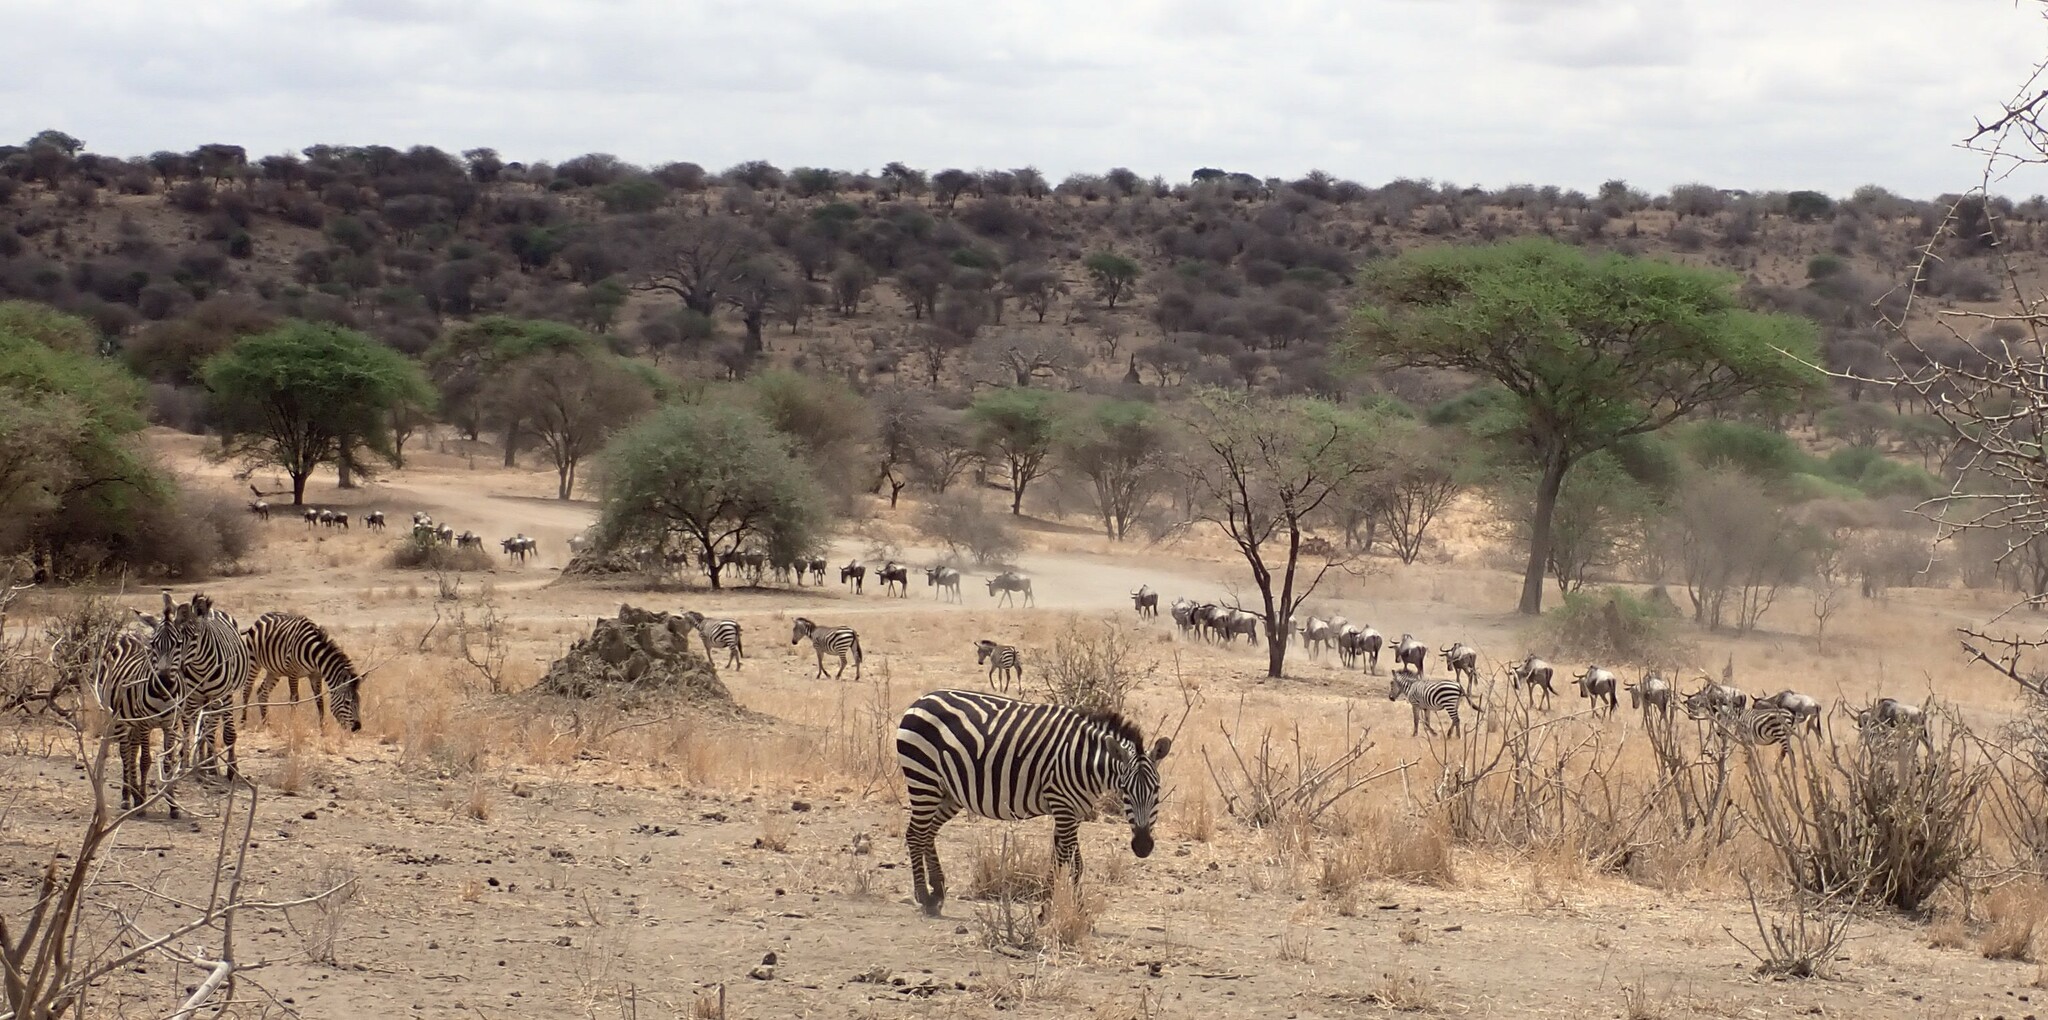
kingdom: Animalia
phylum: Chordata
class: Mammalia
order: Perissodactyla
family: Equidae
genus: Equus
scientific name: Equus quagga
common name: Plains zebra
